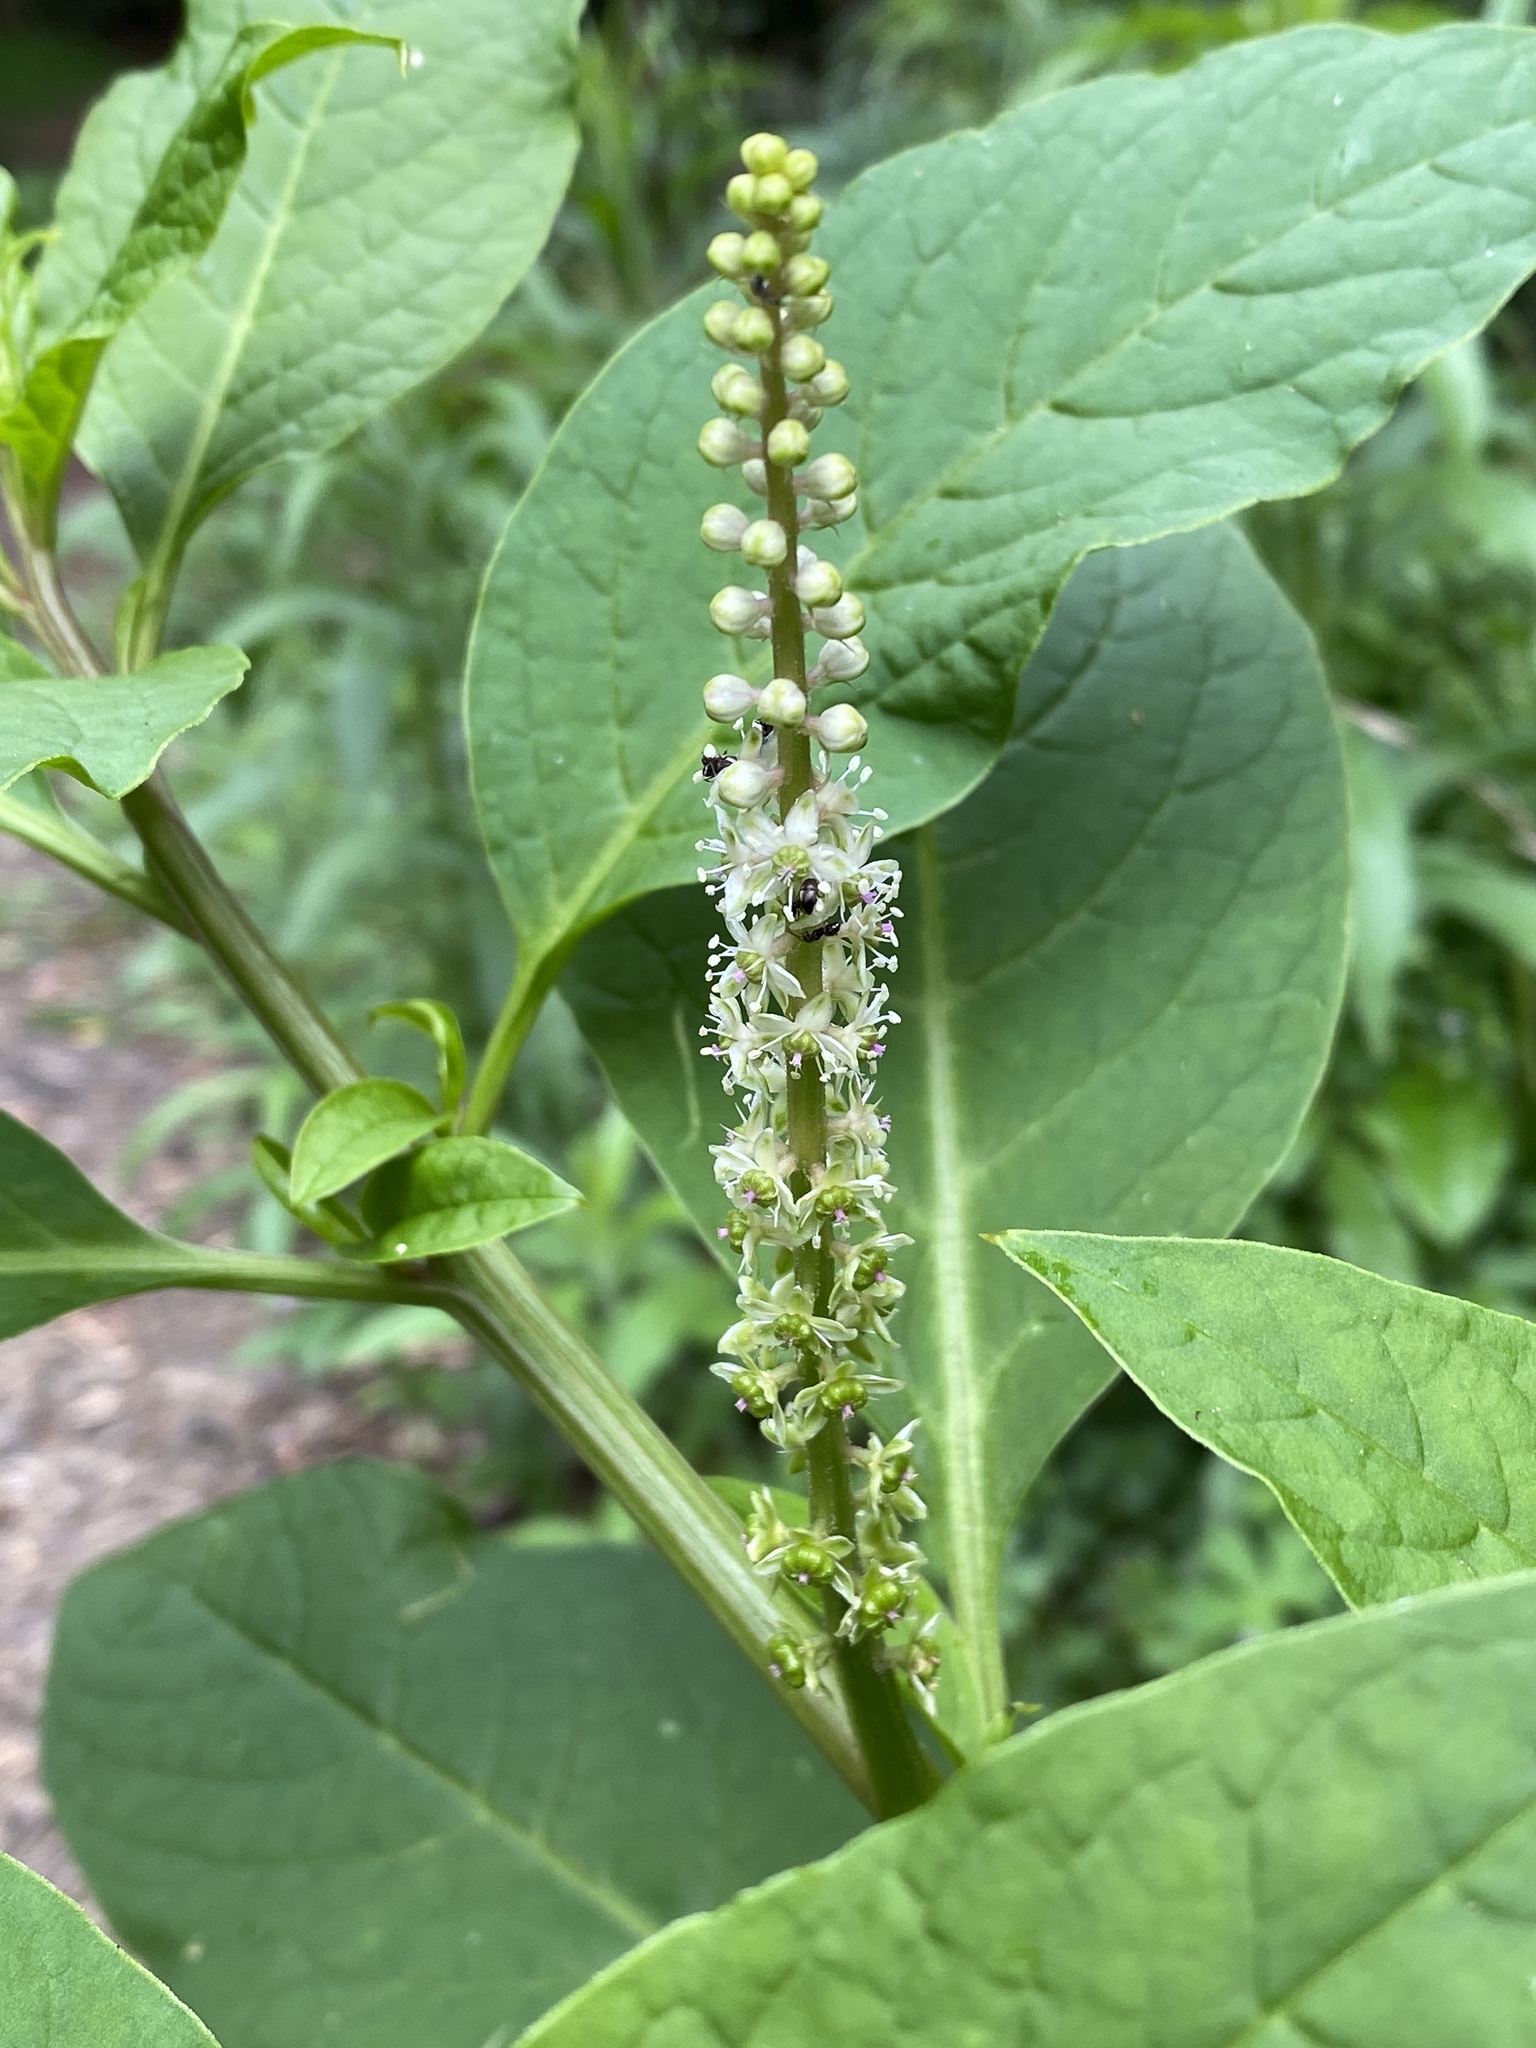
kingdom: Plantae
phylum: Tracheophyta
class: Magnoliopsida
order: Caryophyllales
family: Phytolaccaceae
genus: Phytolacca
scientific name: Phytolacca icosandra
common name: Button pokeweed
